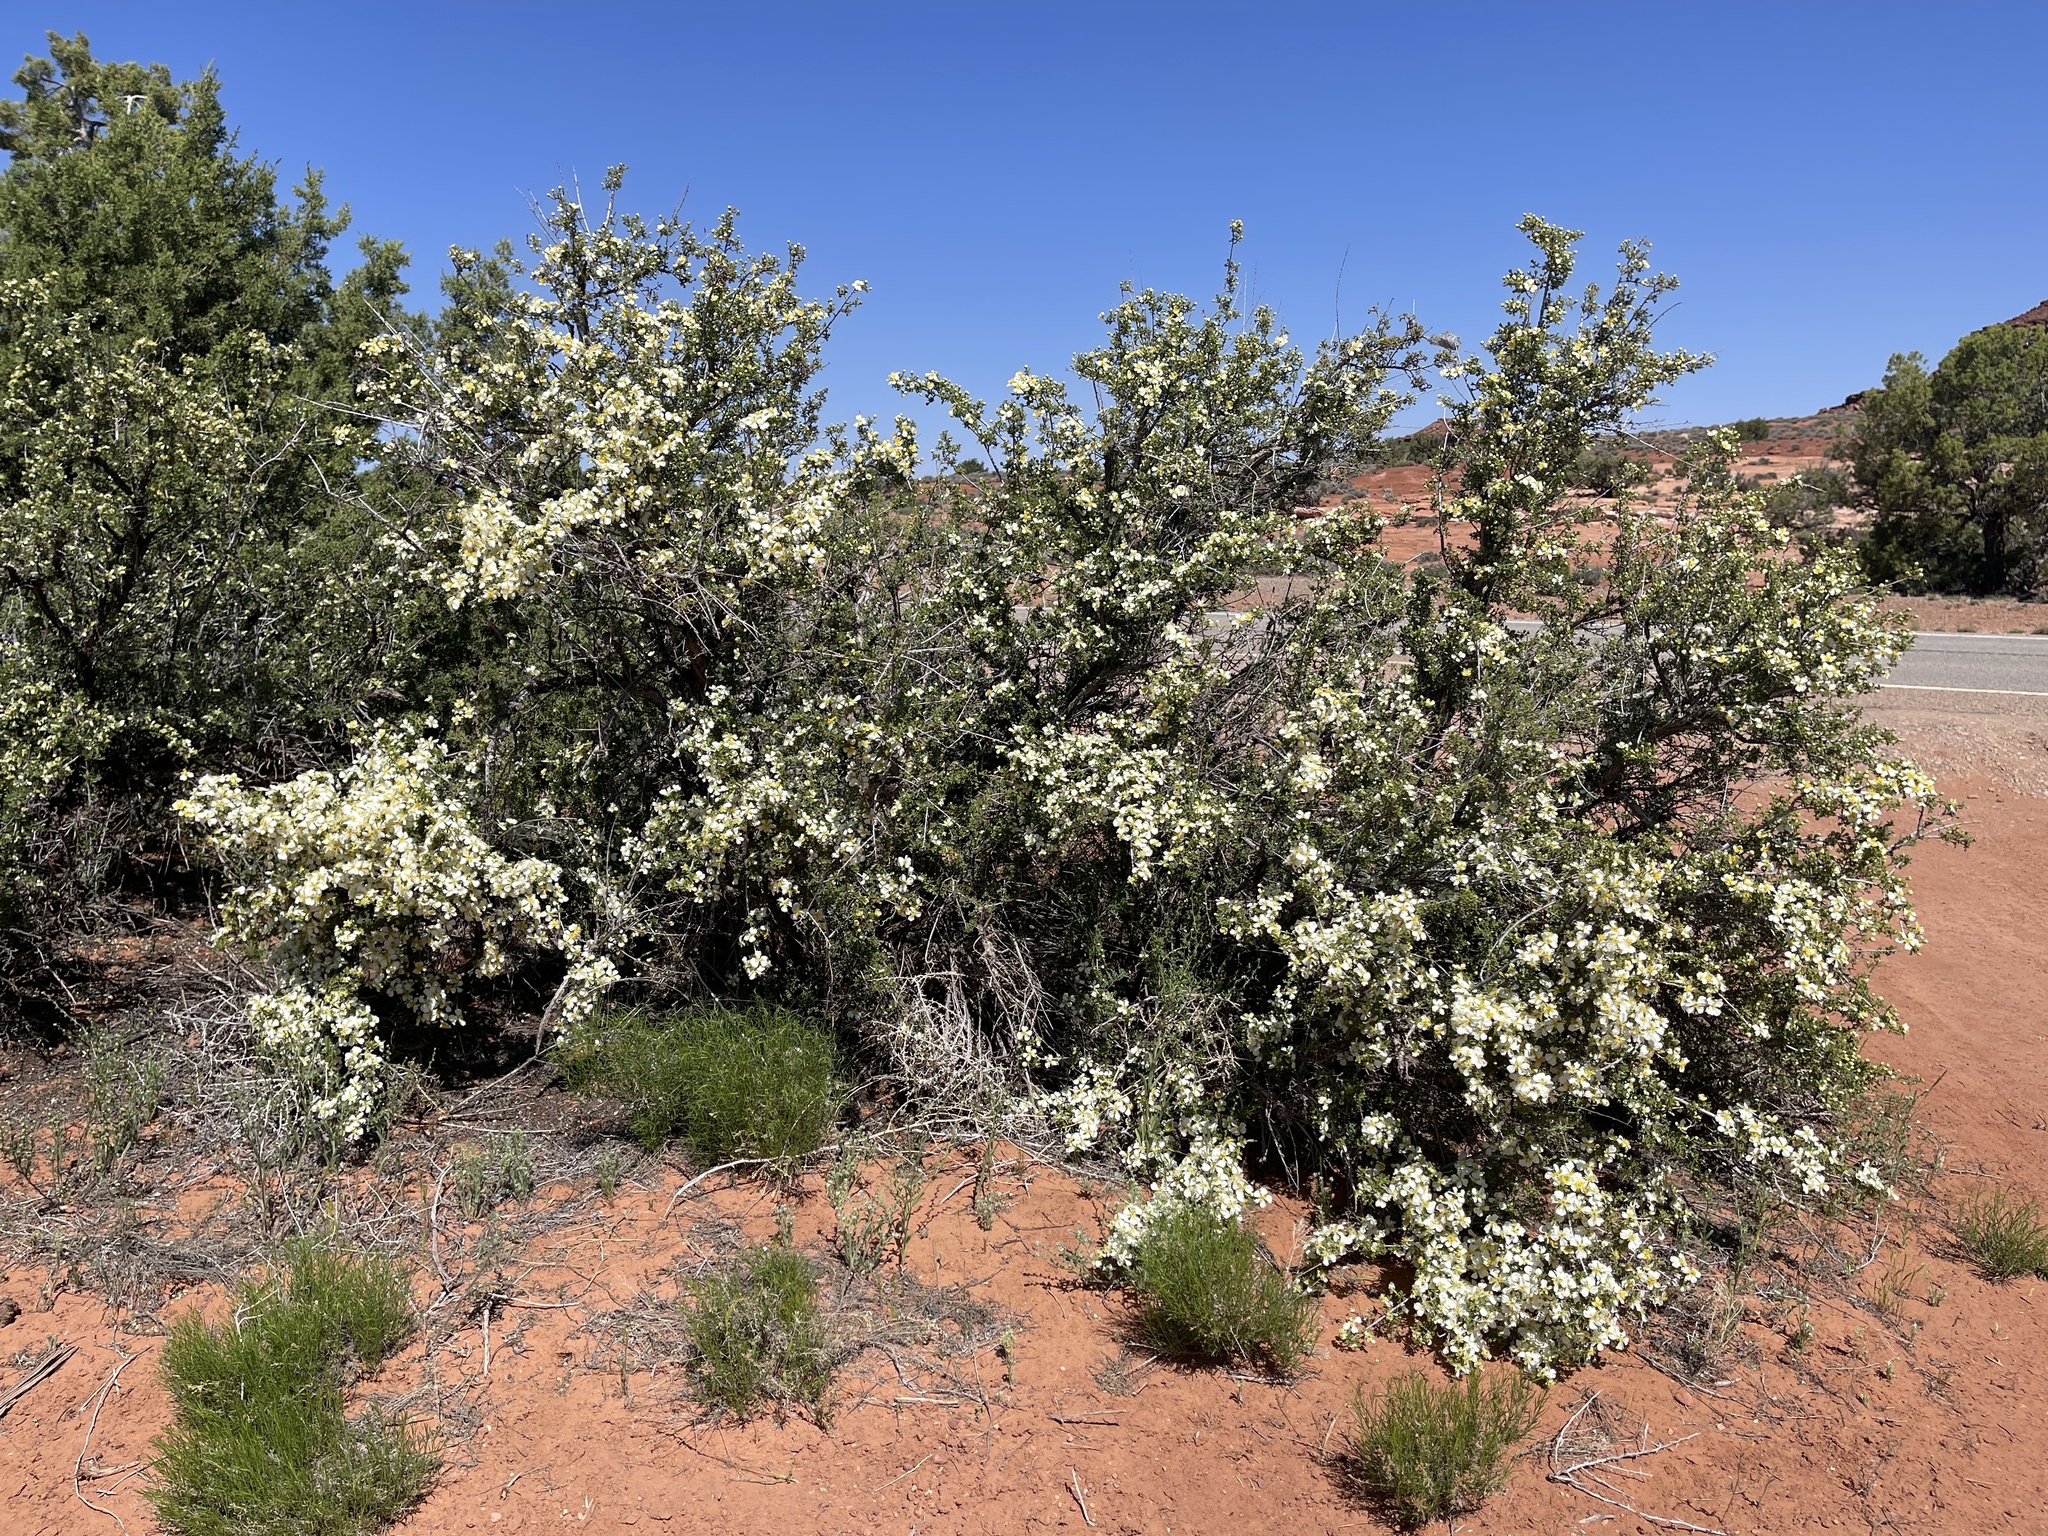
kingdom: Plantae
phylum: Tracheophyta
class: Magnoliopsida
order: Rosales
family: Rosaceae
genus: Purshia
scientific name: Purshia stansburiana
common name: Stansbury's cliffrose
